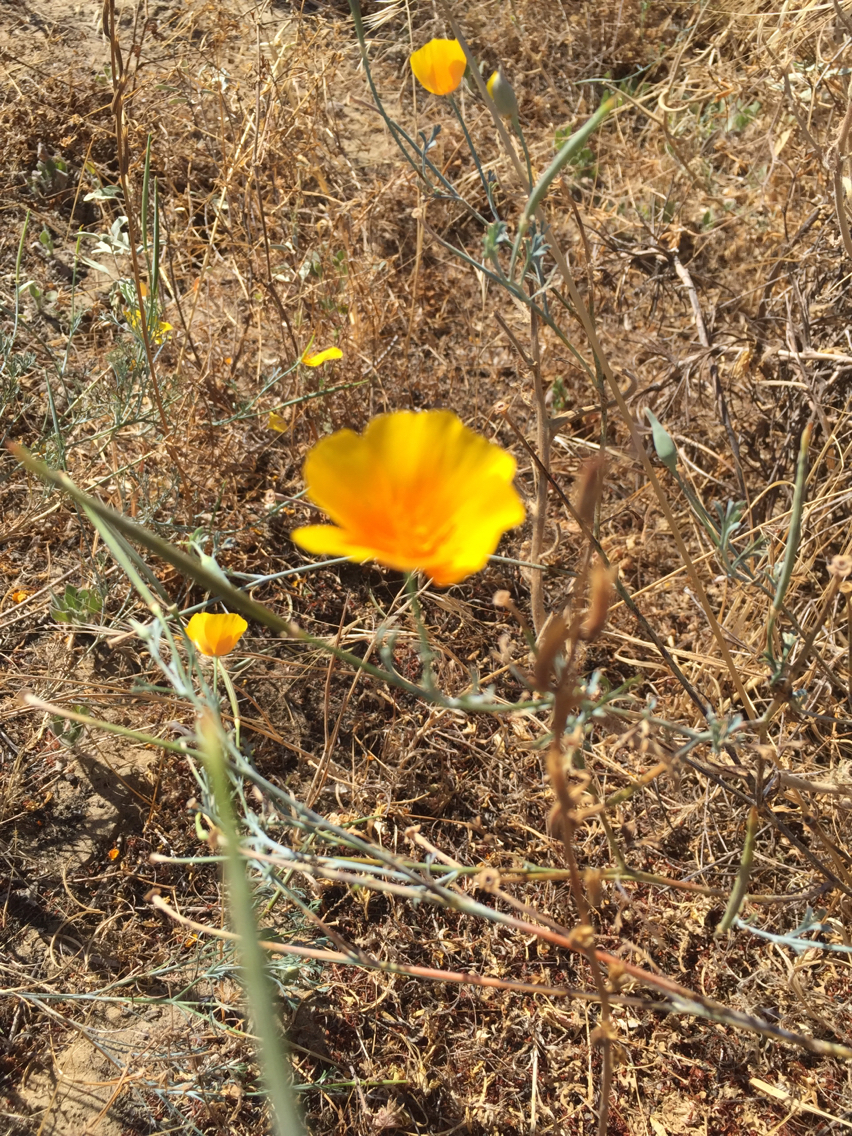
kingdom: Plantae
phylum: Tracheophyta
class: Magnoliopsida
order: Ranunculales
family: Papaveraceae
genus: Eschscholzia
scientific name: Eschscholzia californica
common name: California poppy
